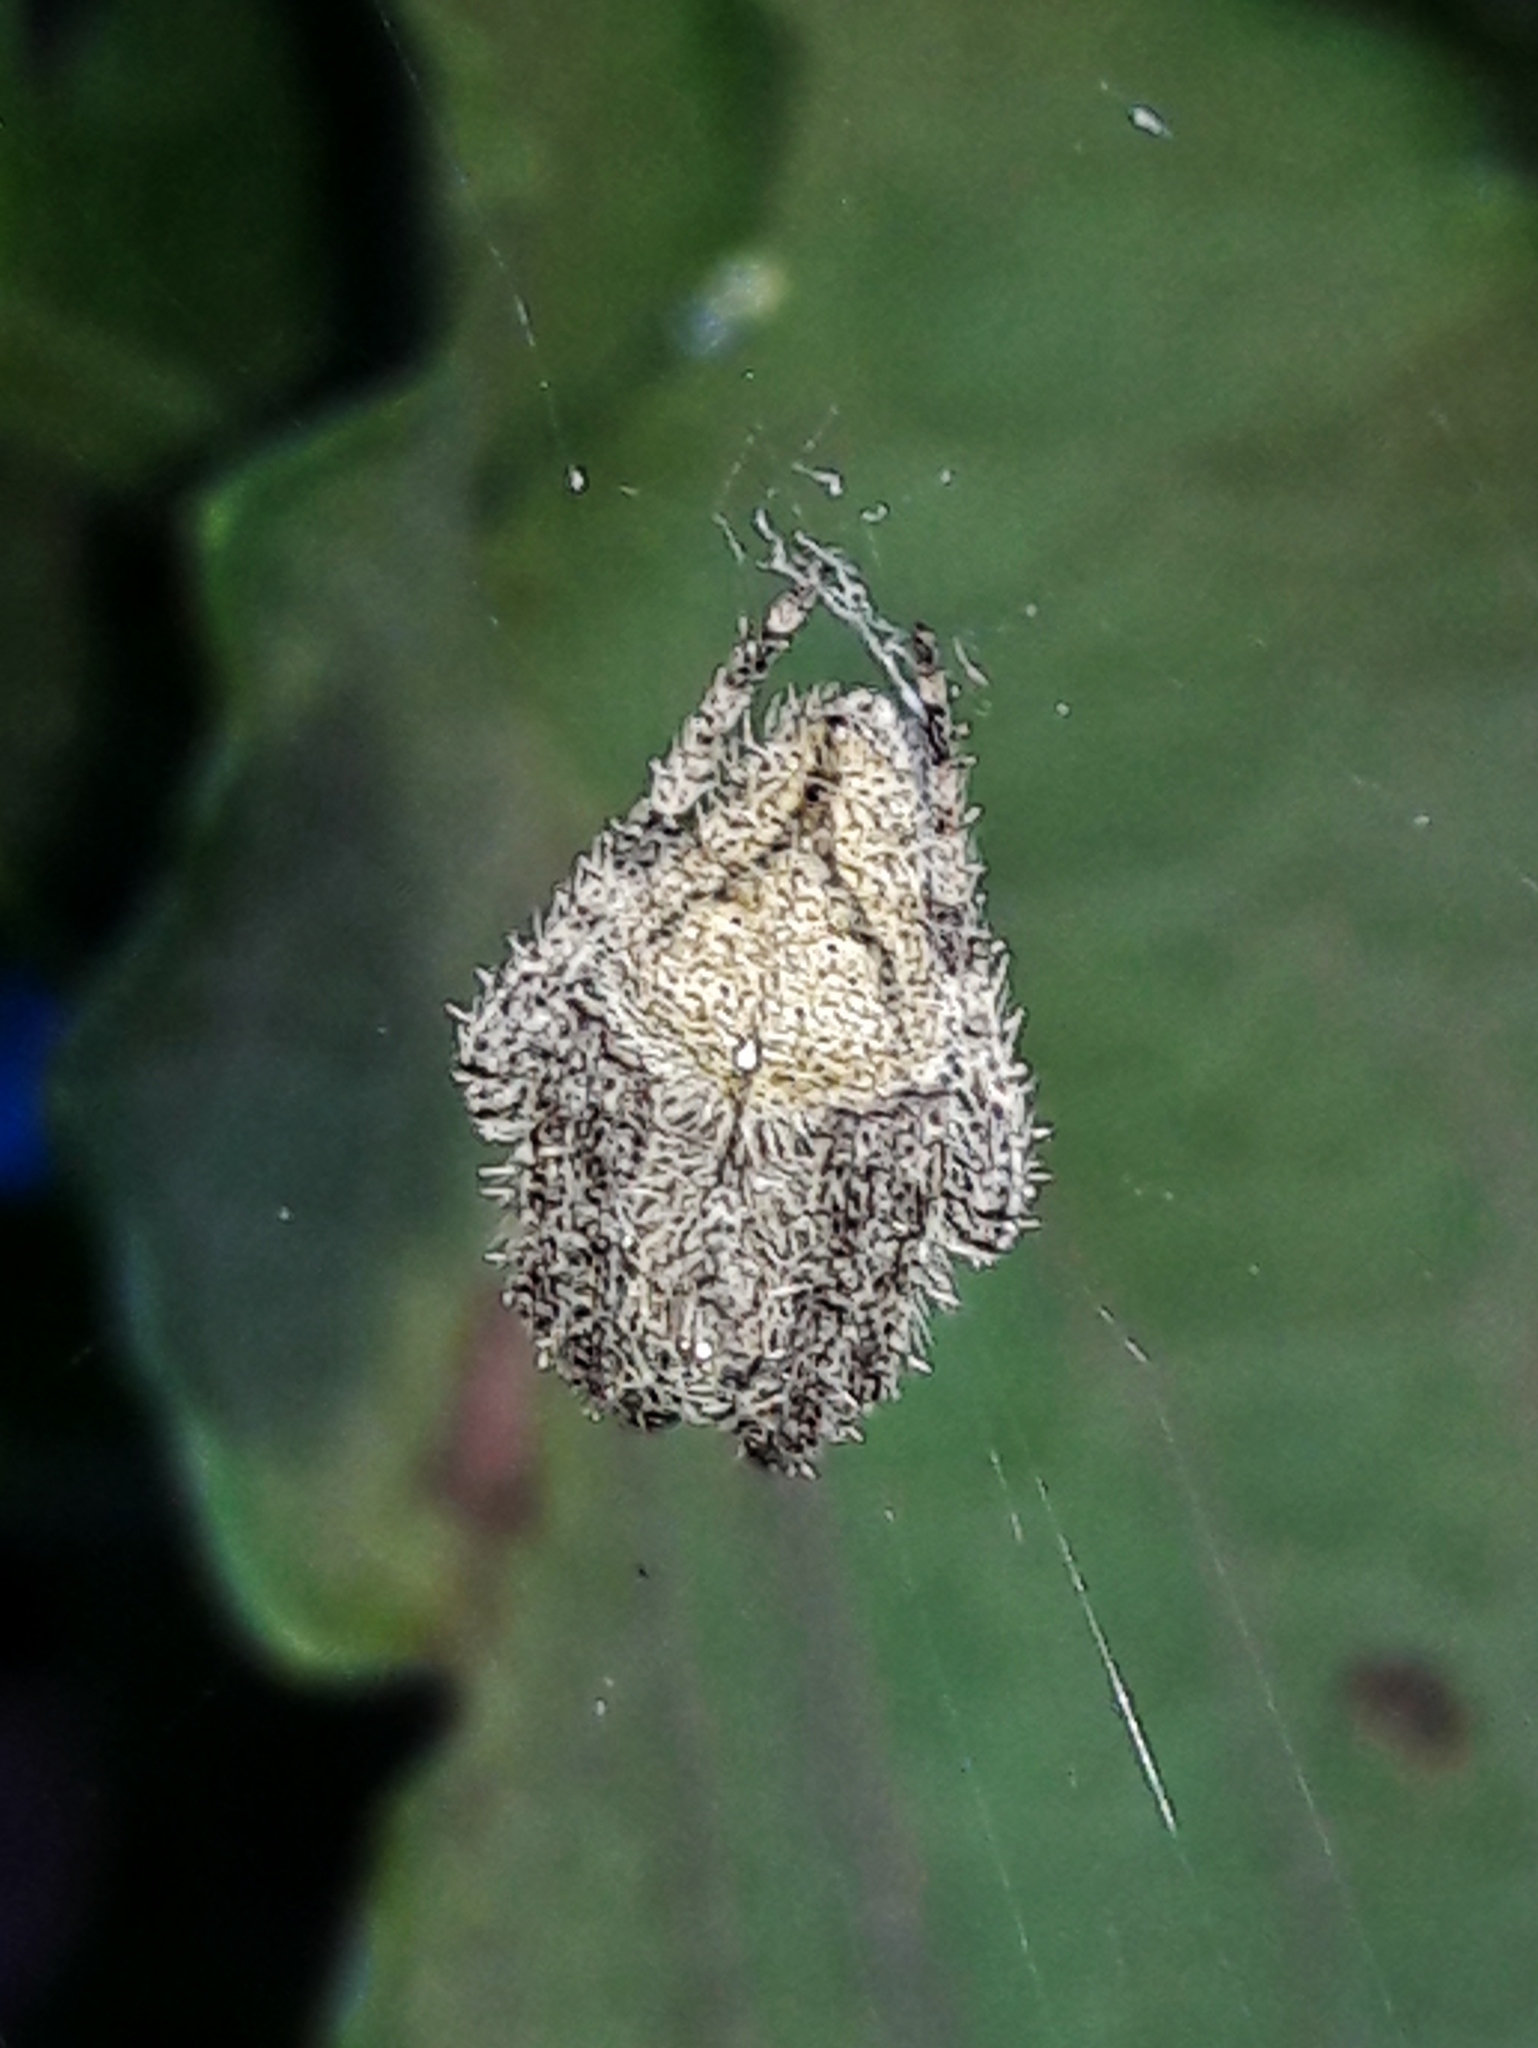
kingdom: Animalia
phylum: Arthropoda
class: Arachnida
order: Araneae
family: Araneidae
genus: Eriophora
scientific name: Eriophora edax
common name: Orb weavers
